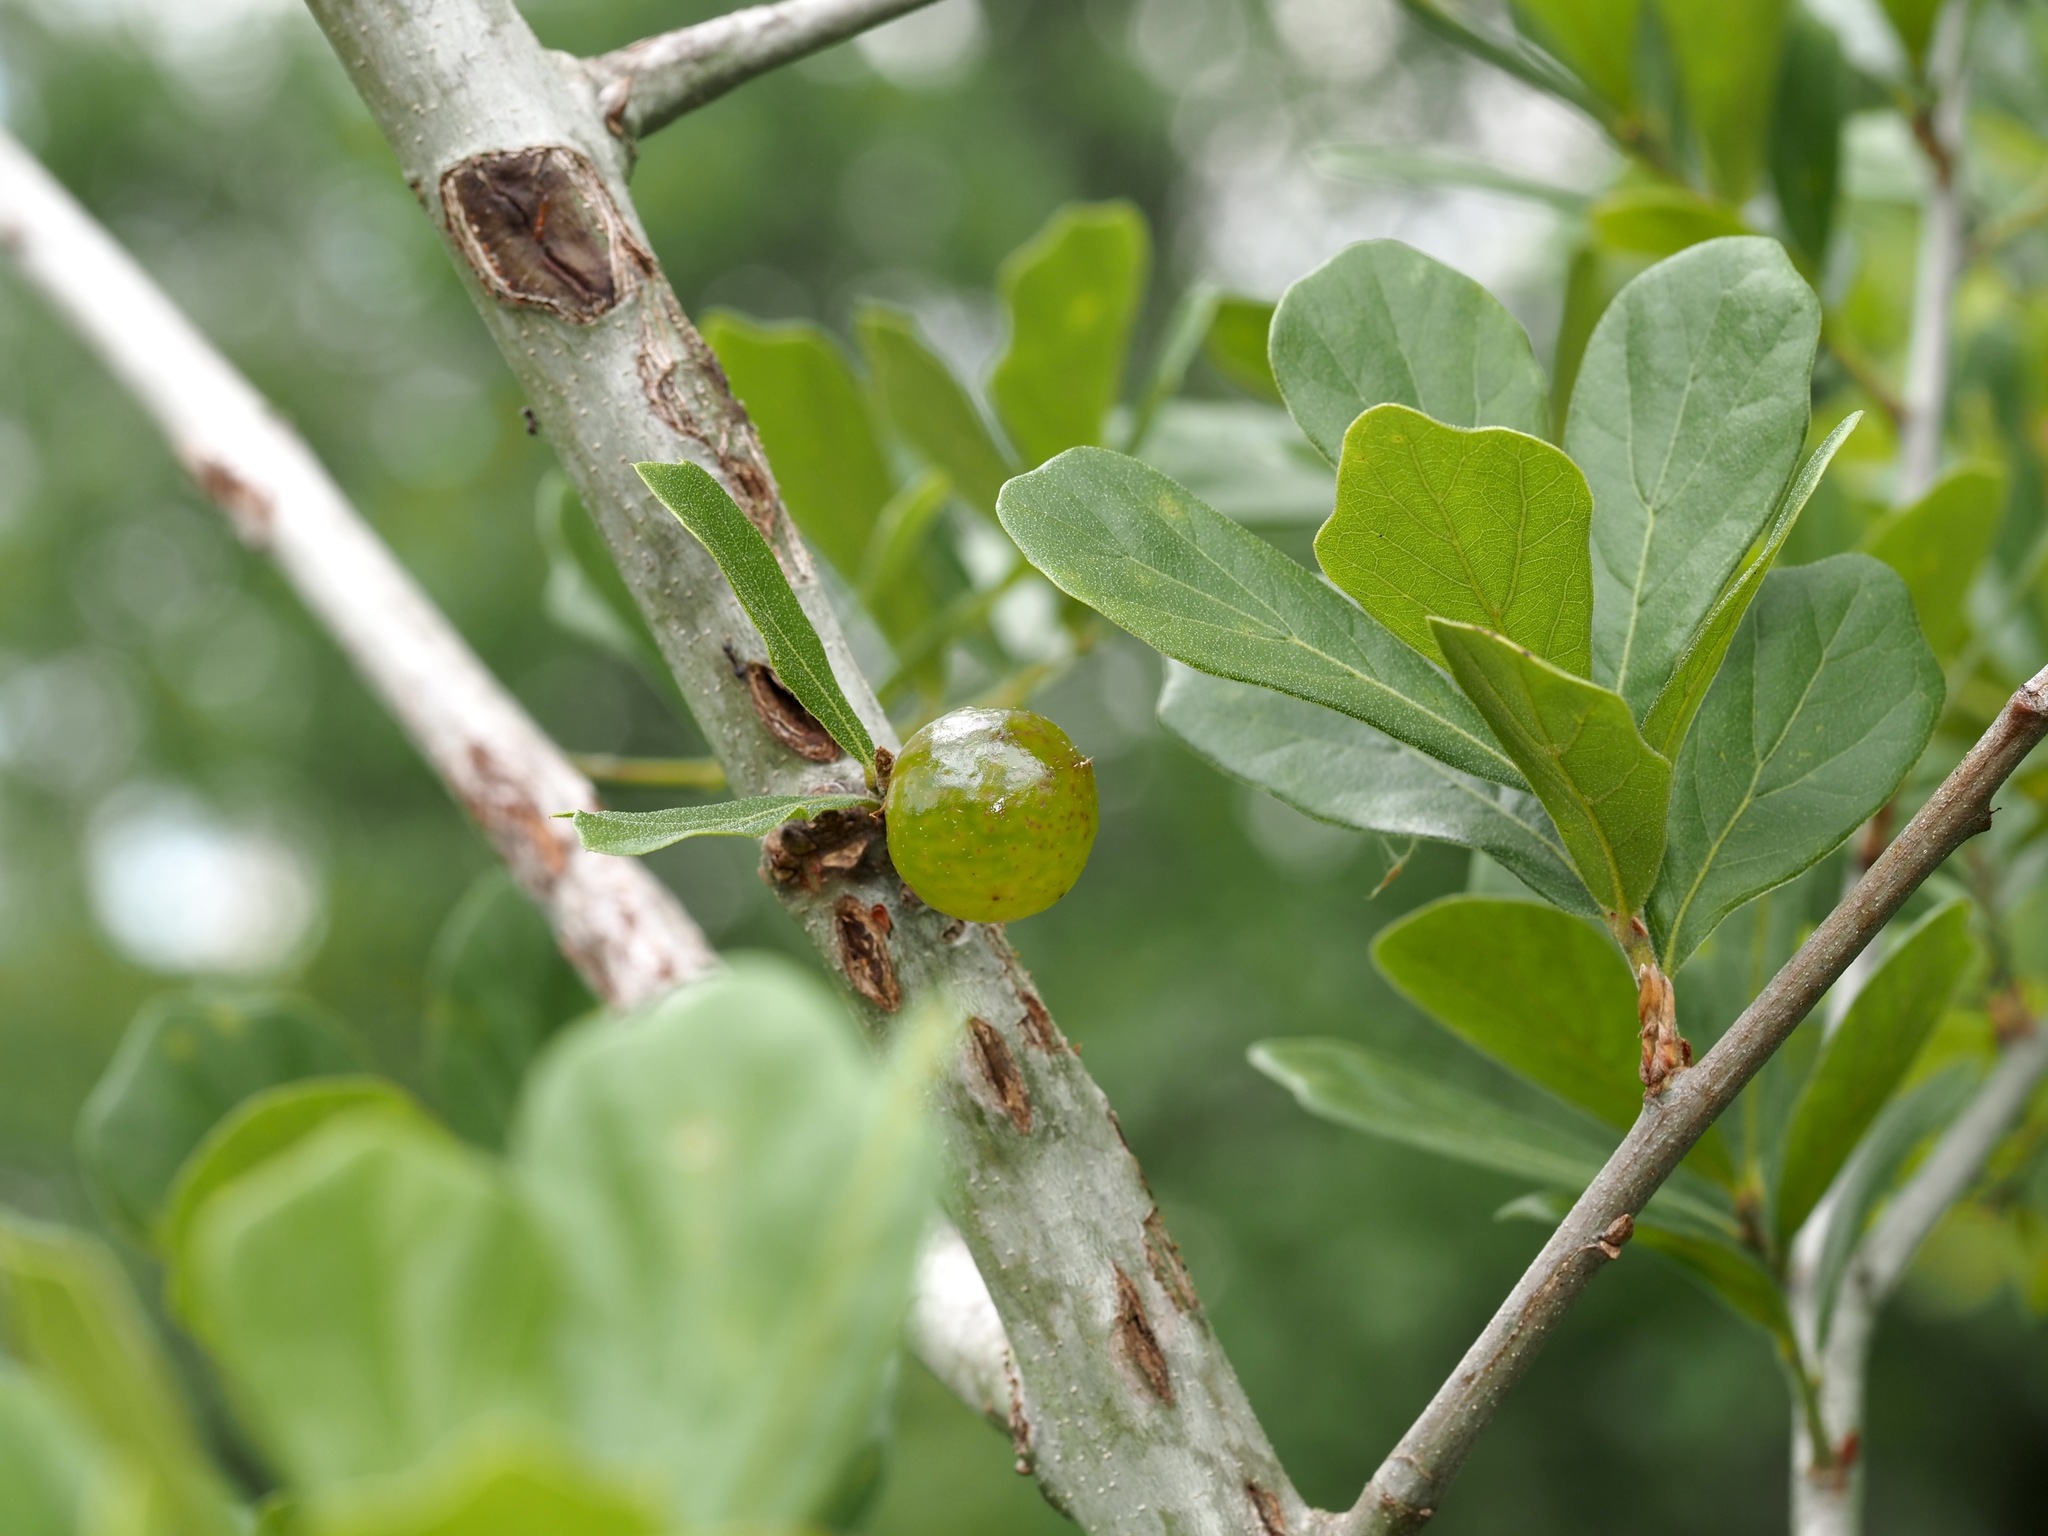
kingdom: Animalia
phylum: Arthropoda
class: Insecta
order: Hymenoptera
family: Cynipidae
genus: Amphibolips
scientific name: Amphibolips
